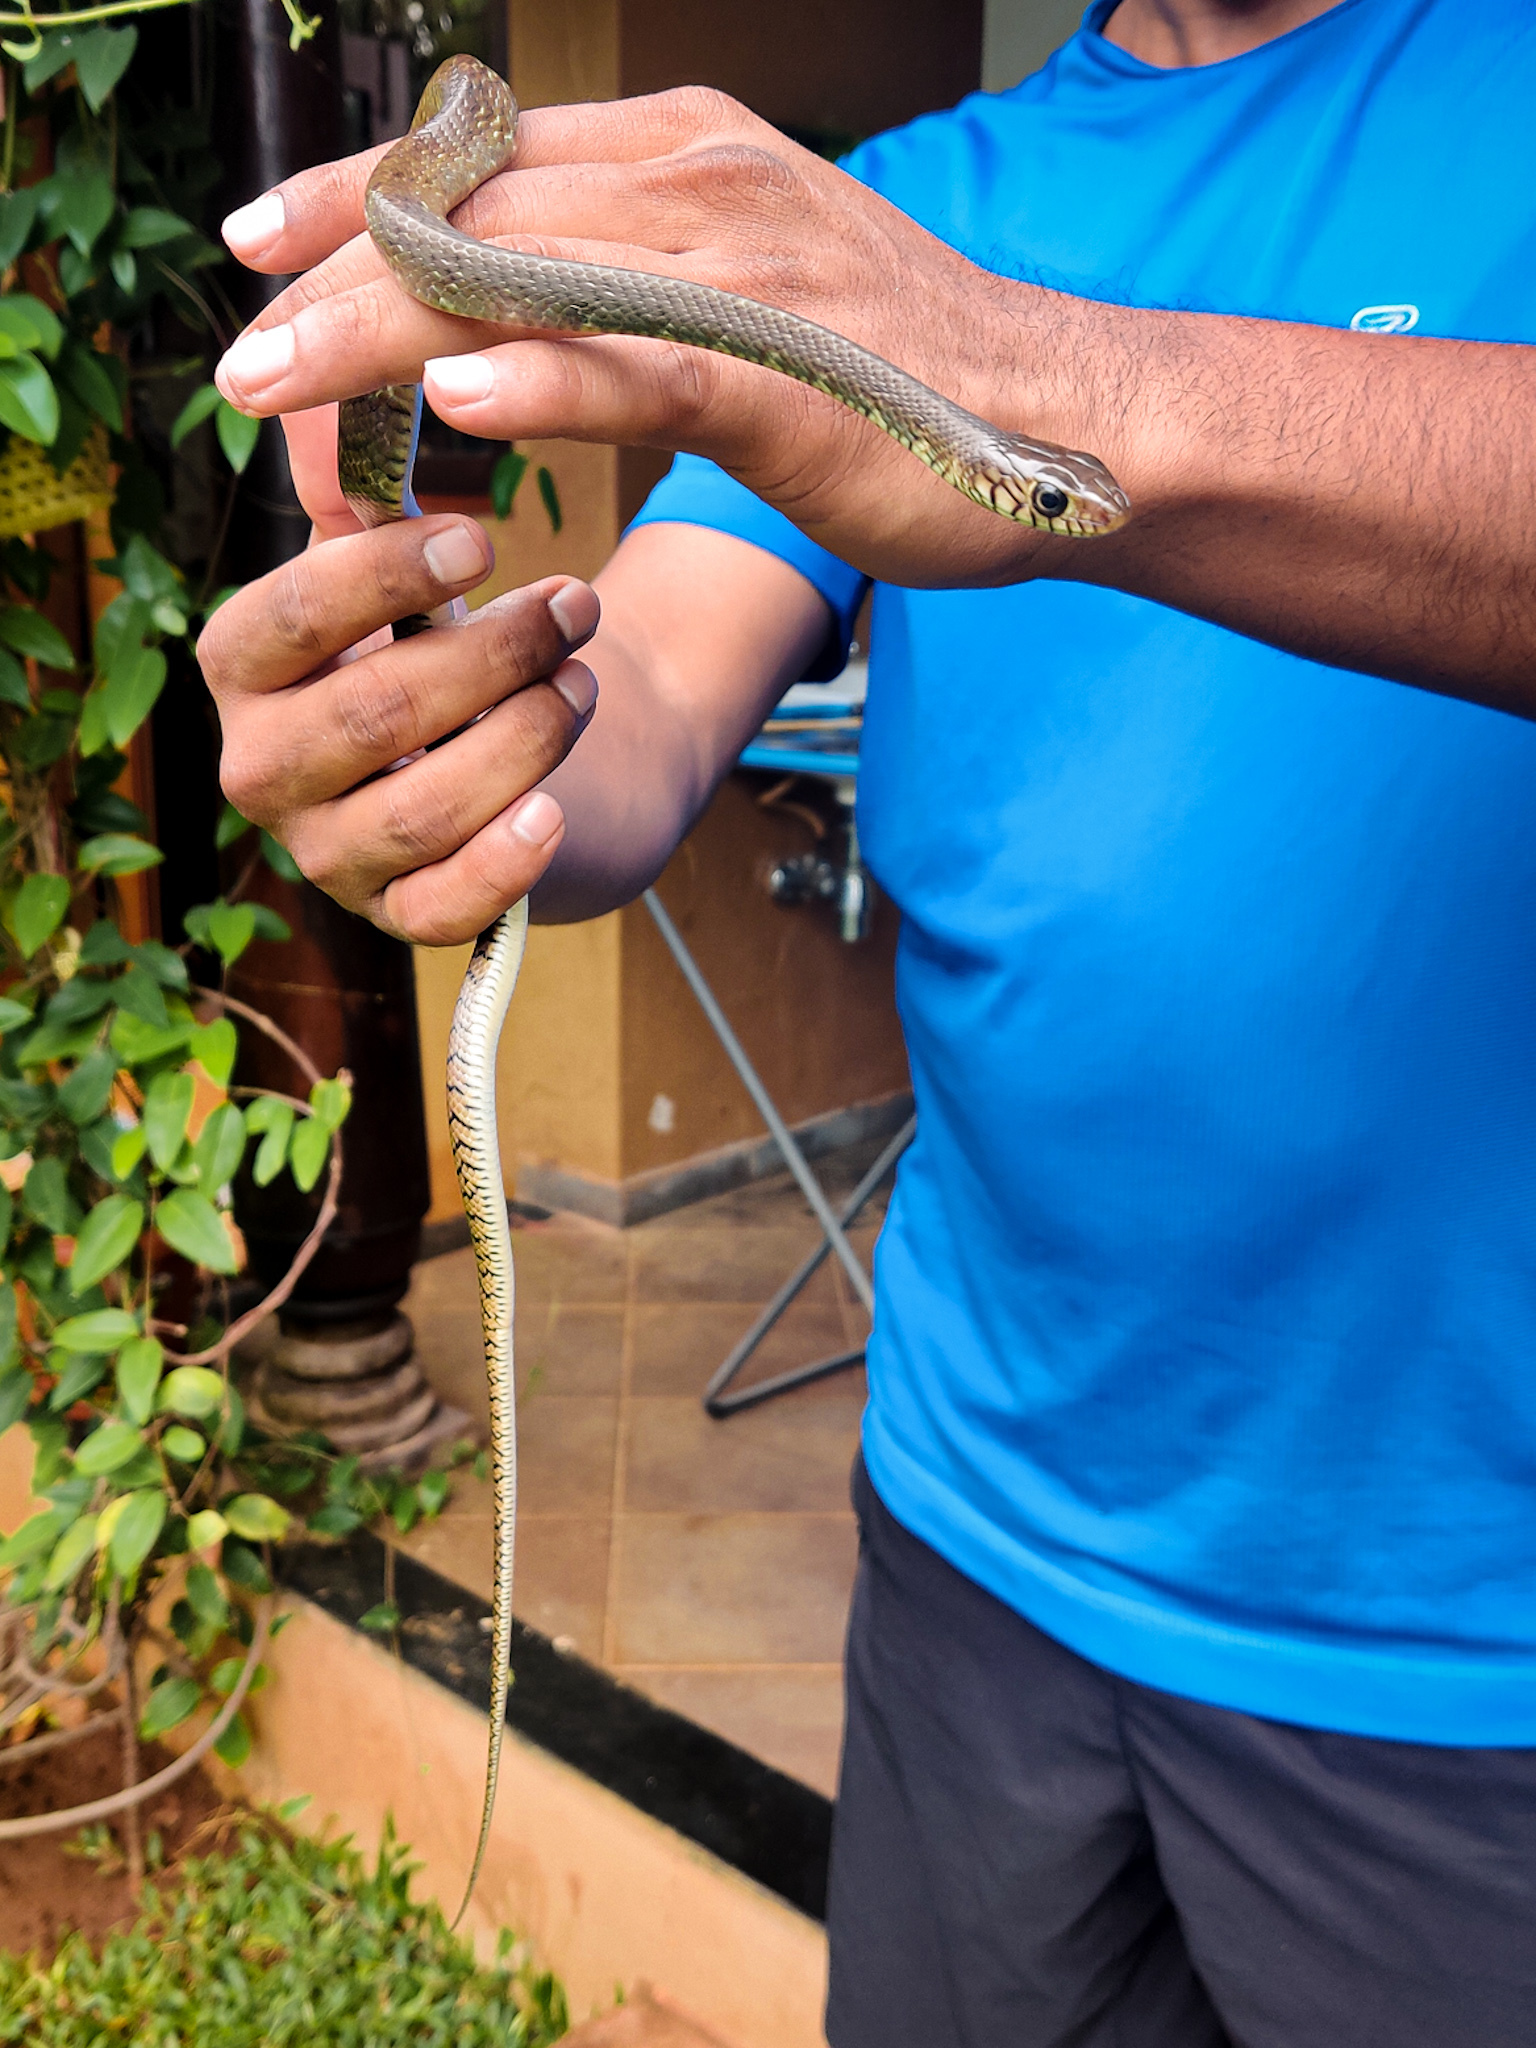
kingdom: Animalia
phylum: Chordata
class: Squamata
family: Colubridae
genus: Ptyas
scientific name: Ptyas mucosa
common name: Oriental ratsnake
